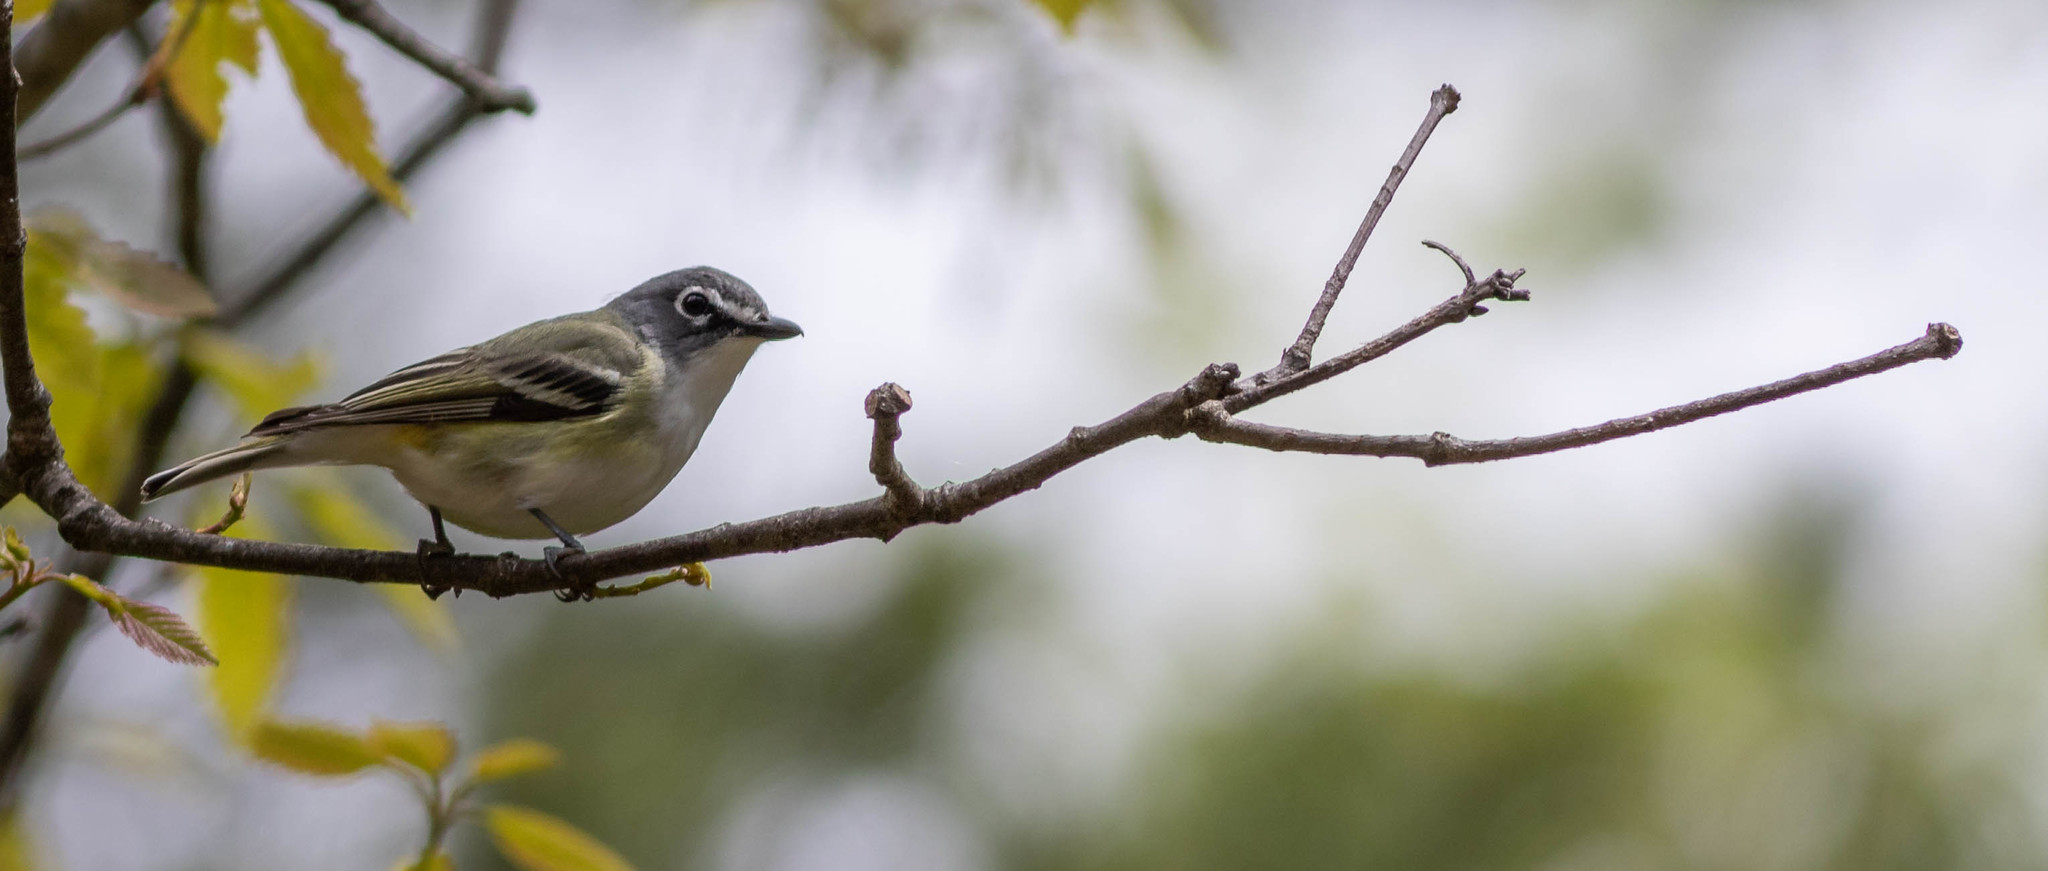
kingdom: Animalia
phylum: Chordata
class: Aves
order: Passeriformes
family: Vireonidae
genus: Vireo
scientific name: Vireo solitarius
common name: Blue-headed vireo
